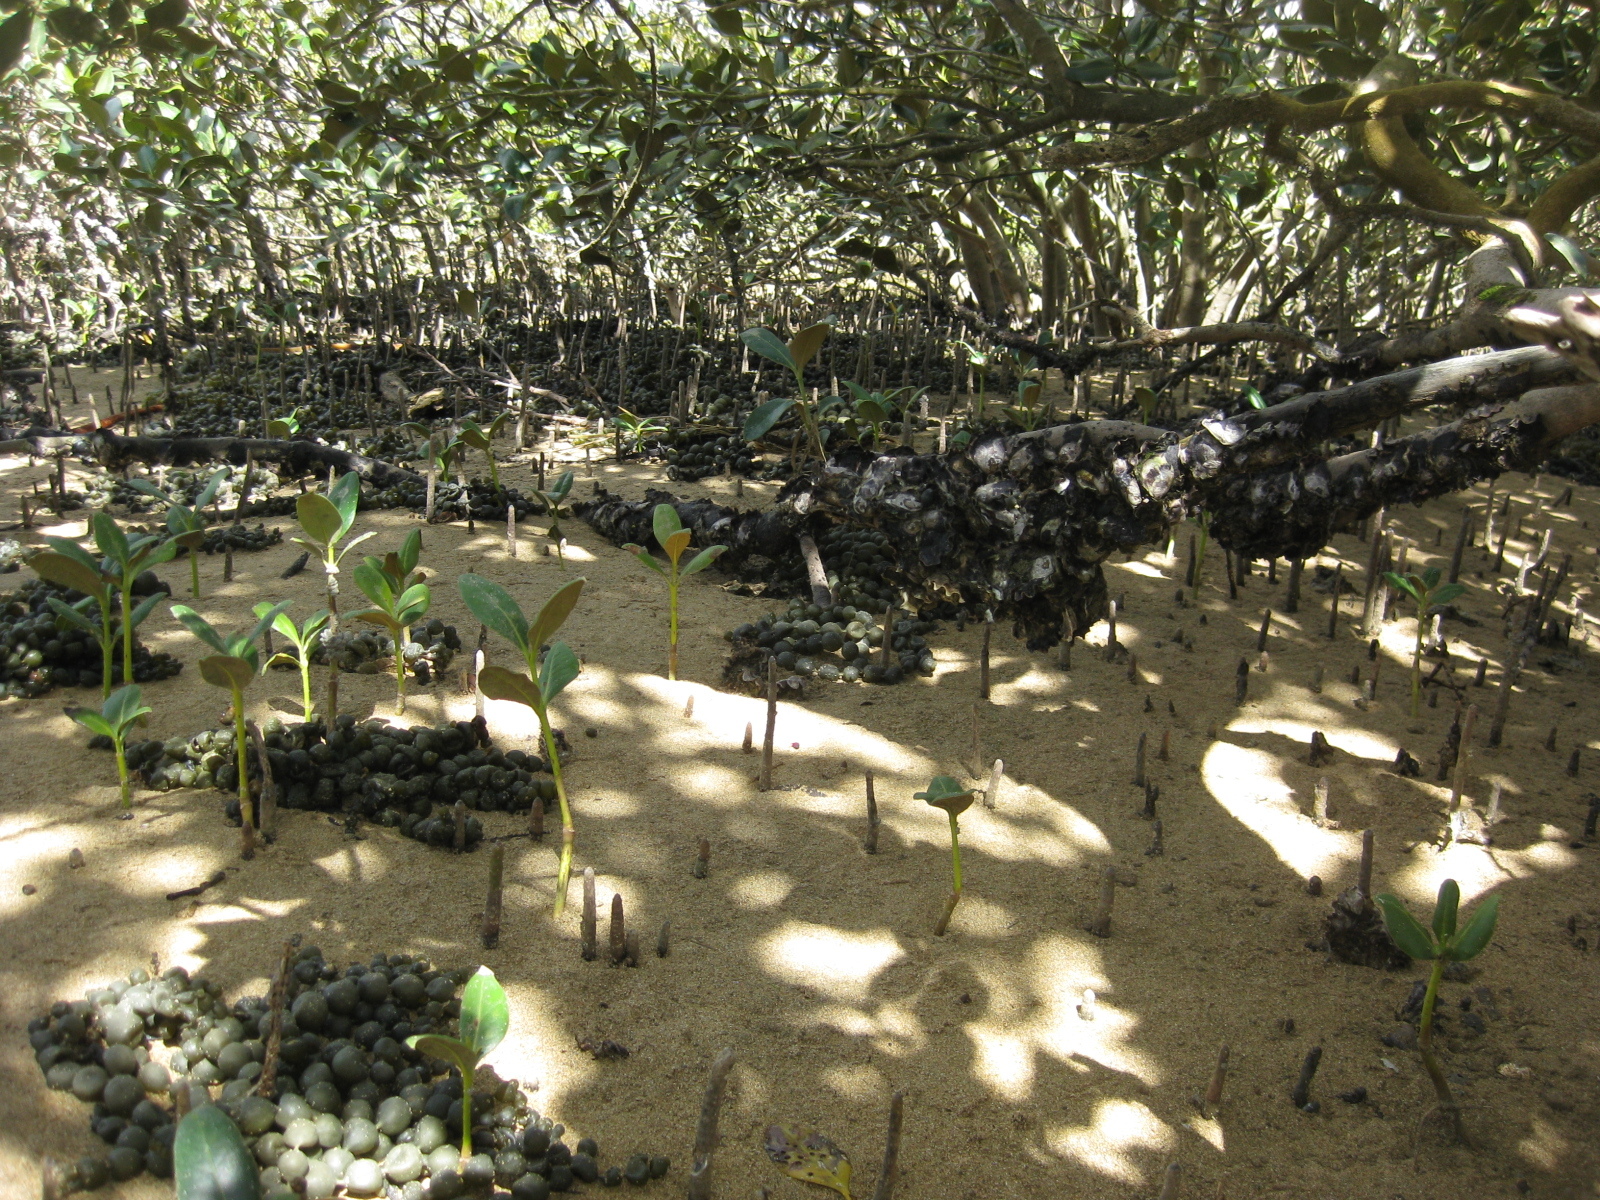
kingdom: Plantae
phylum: Tracheophyta
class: Magnoliopsida
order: Lamiales
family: Acanthaceae
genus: Avicennia
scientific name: Avicennia marina
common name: Gray mangrove
